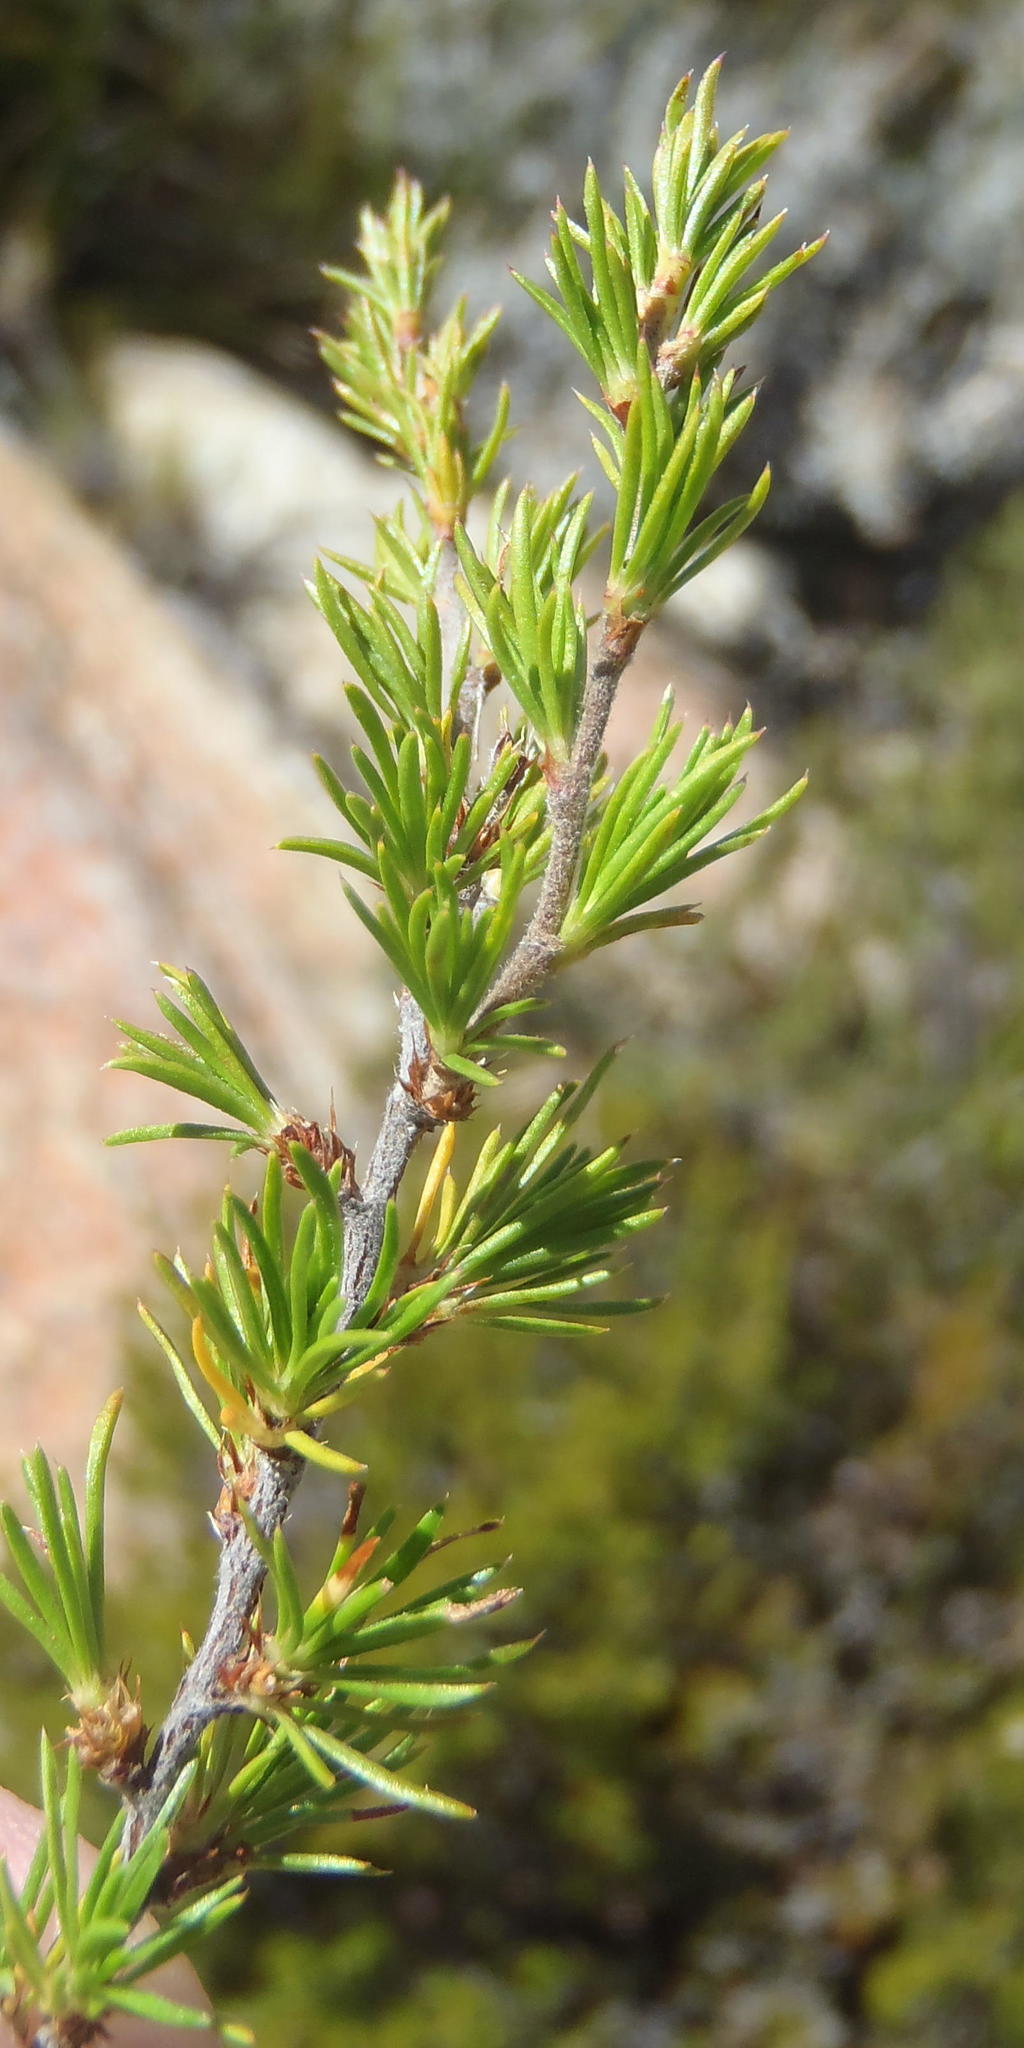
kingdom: Plantae
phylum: Tracheophyta
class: Magnoliopsida
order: Rosales
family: Rosaceae
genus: Cliffortia
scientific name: Cliffortia tuberculata
